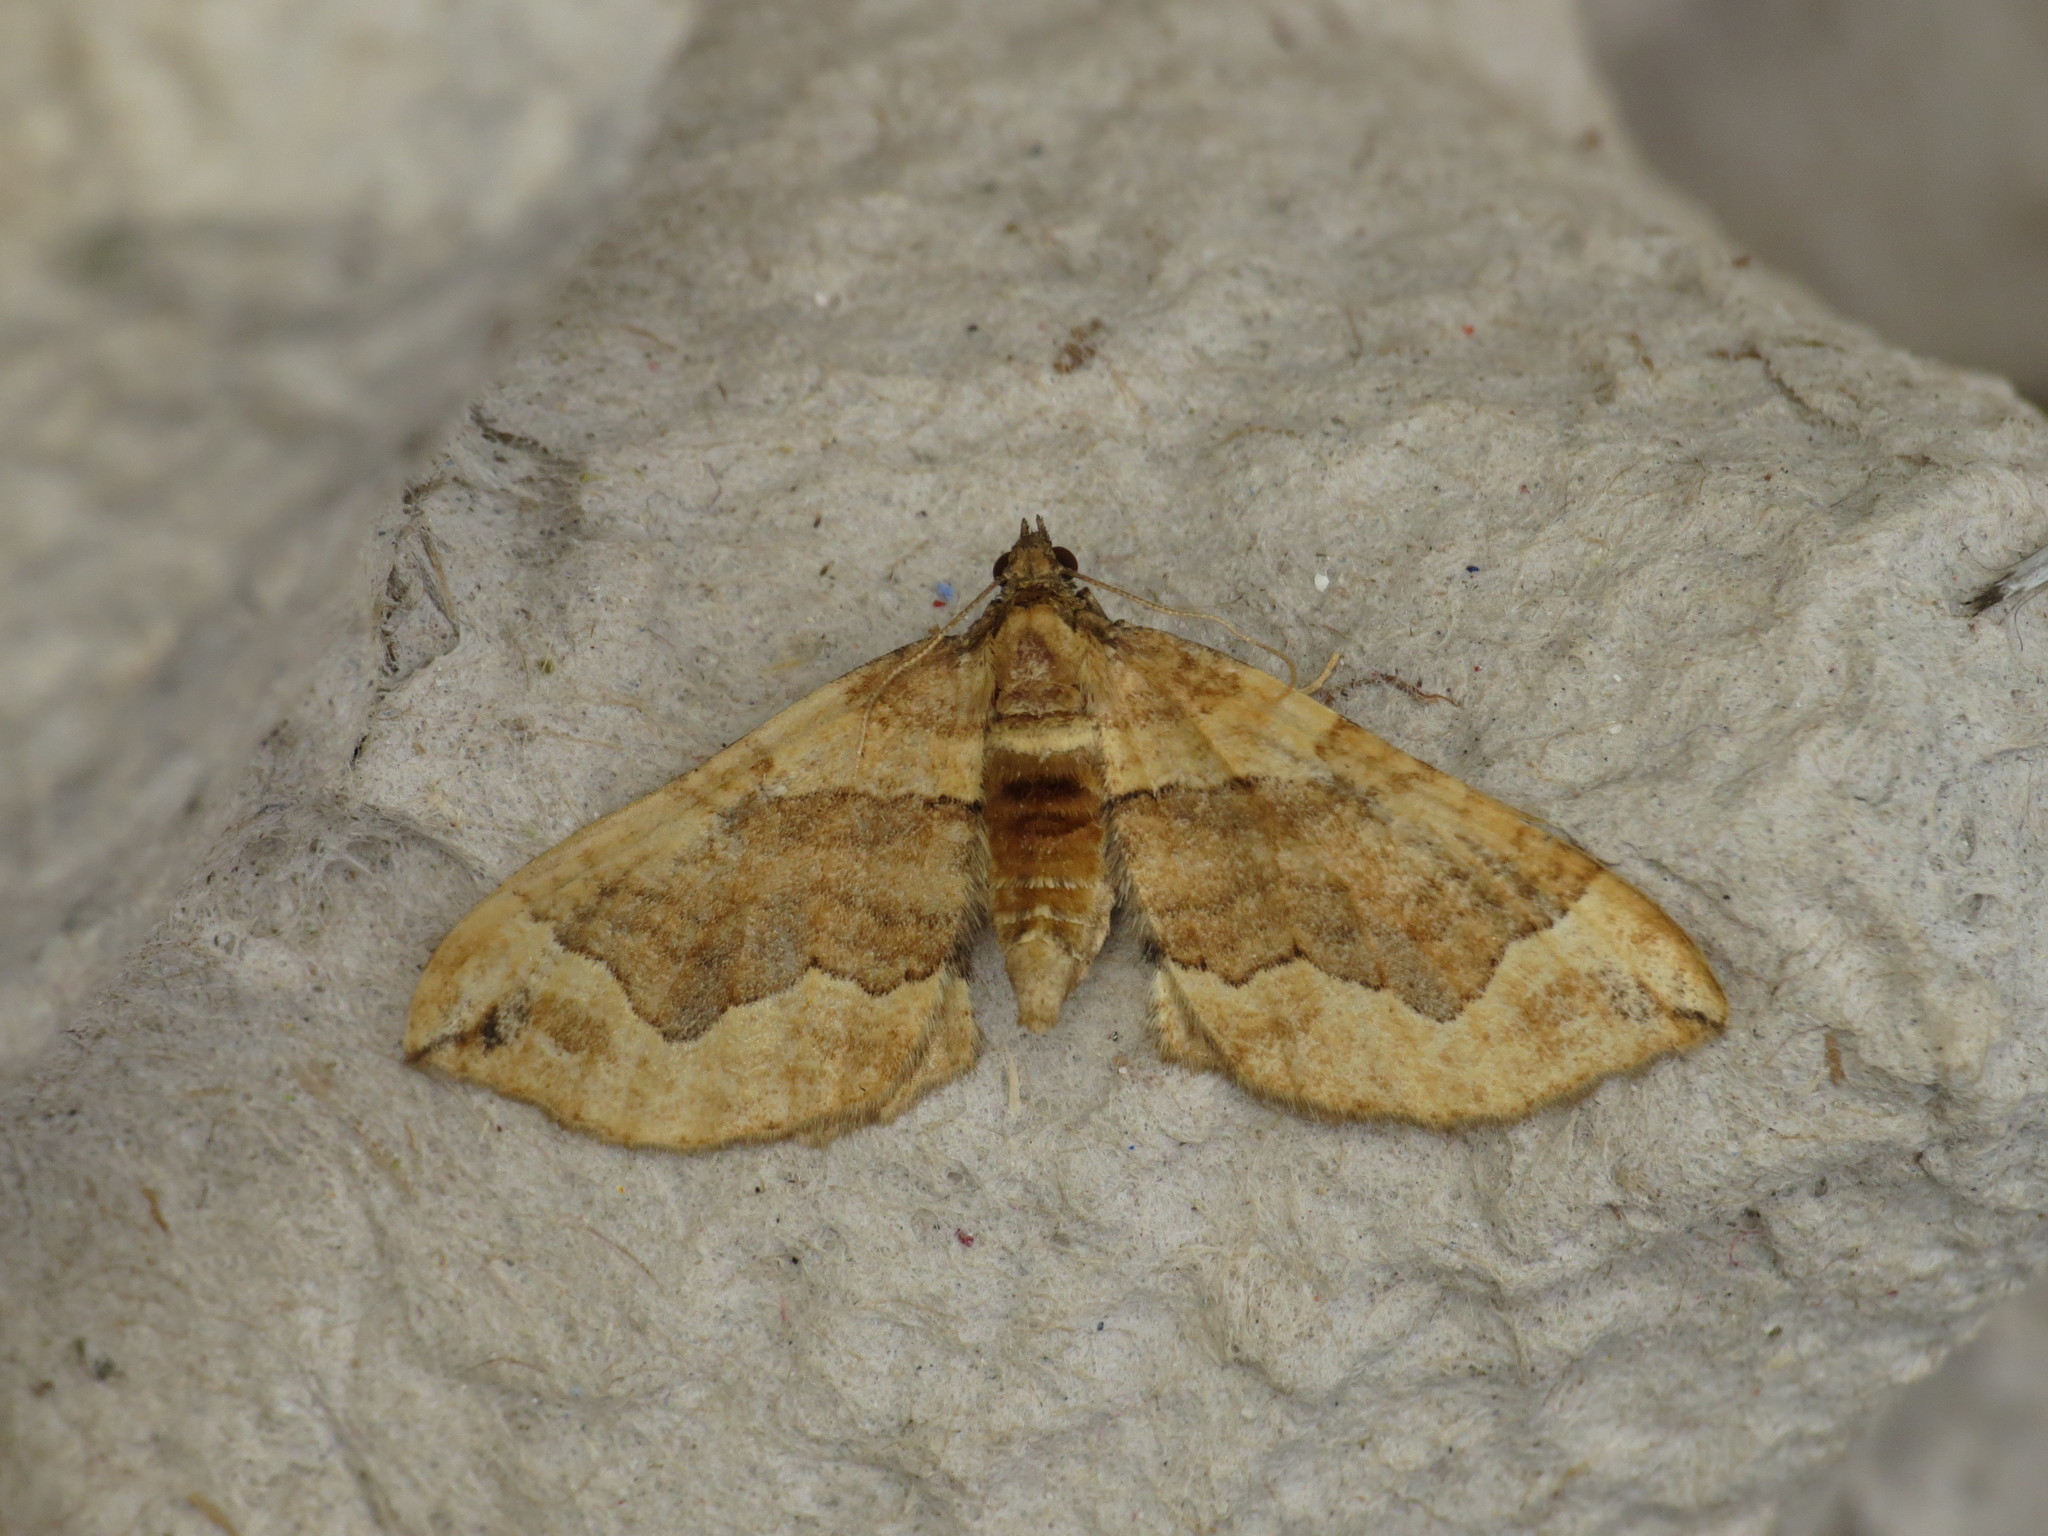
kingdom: Animalia
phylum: Arthropoda
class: Insecta
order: Lepidoptera
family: Geometridae
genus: Pelurga
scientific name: Pelurga comitata
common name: Dark spinach
